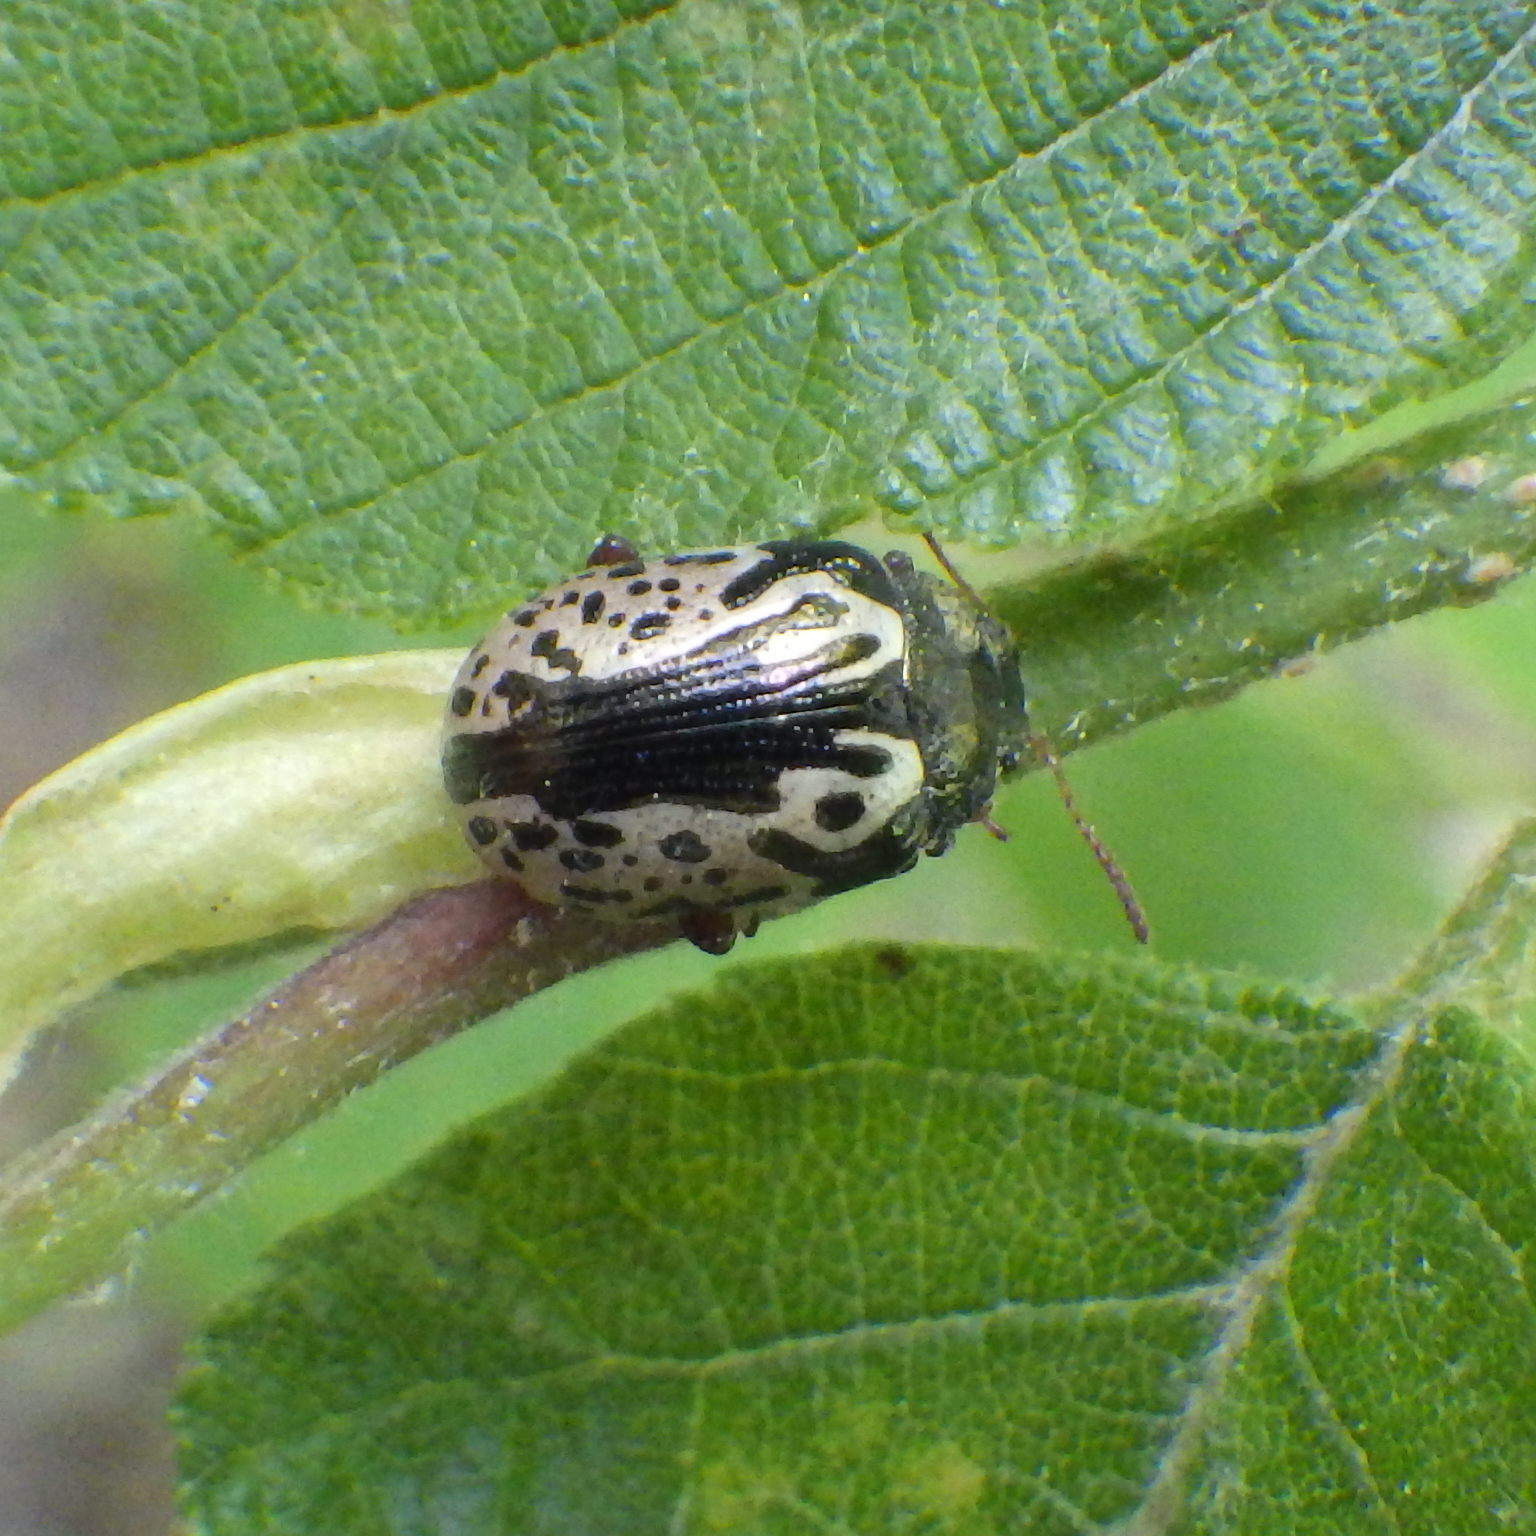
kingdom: Animalia
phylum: Arthropoda
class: Insecta
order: Coleoptera
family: Chrysomelidae
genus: Calligrapha
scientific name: Calligrapha confluens
